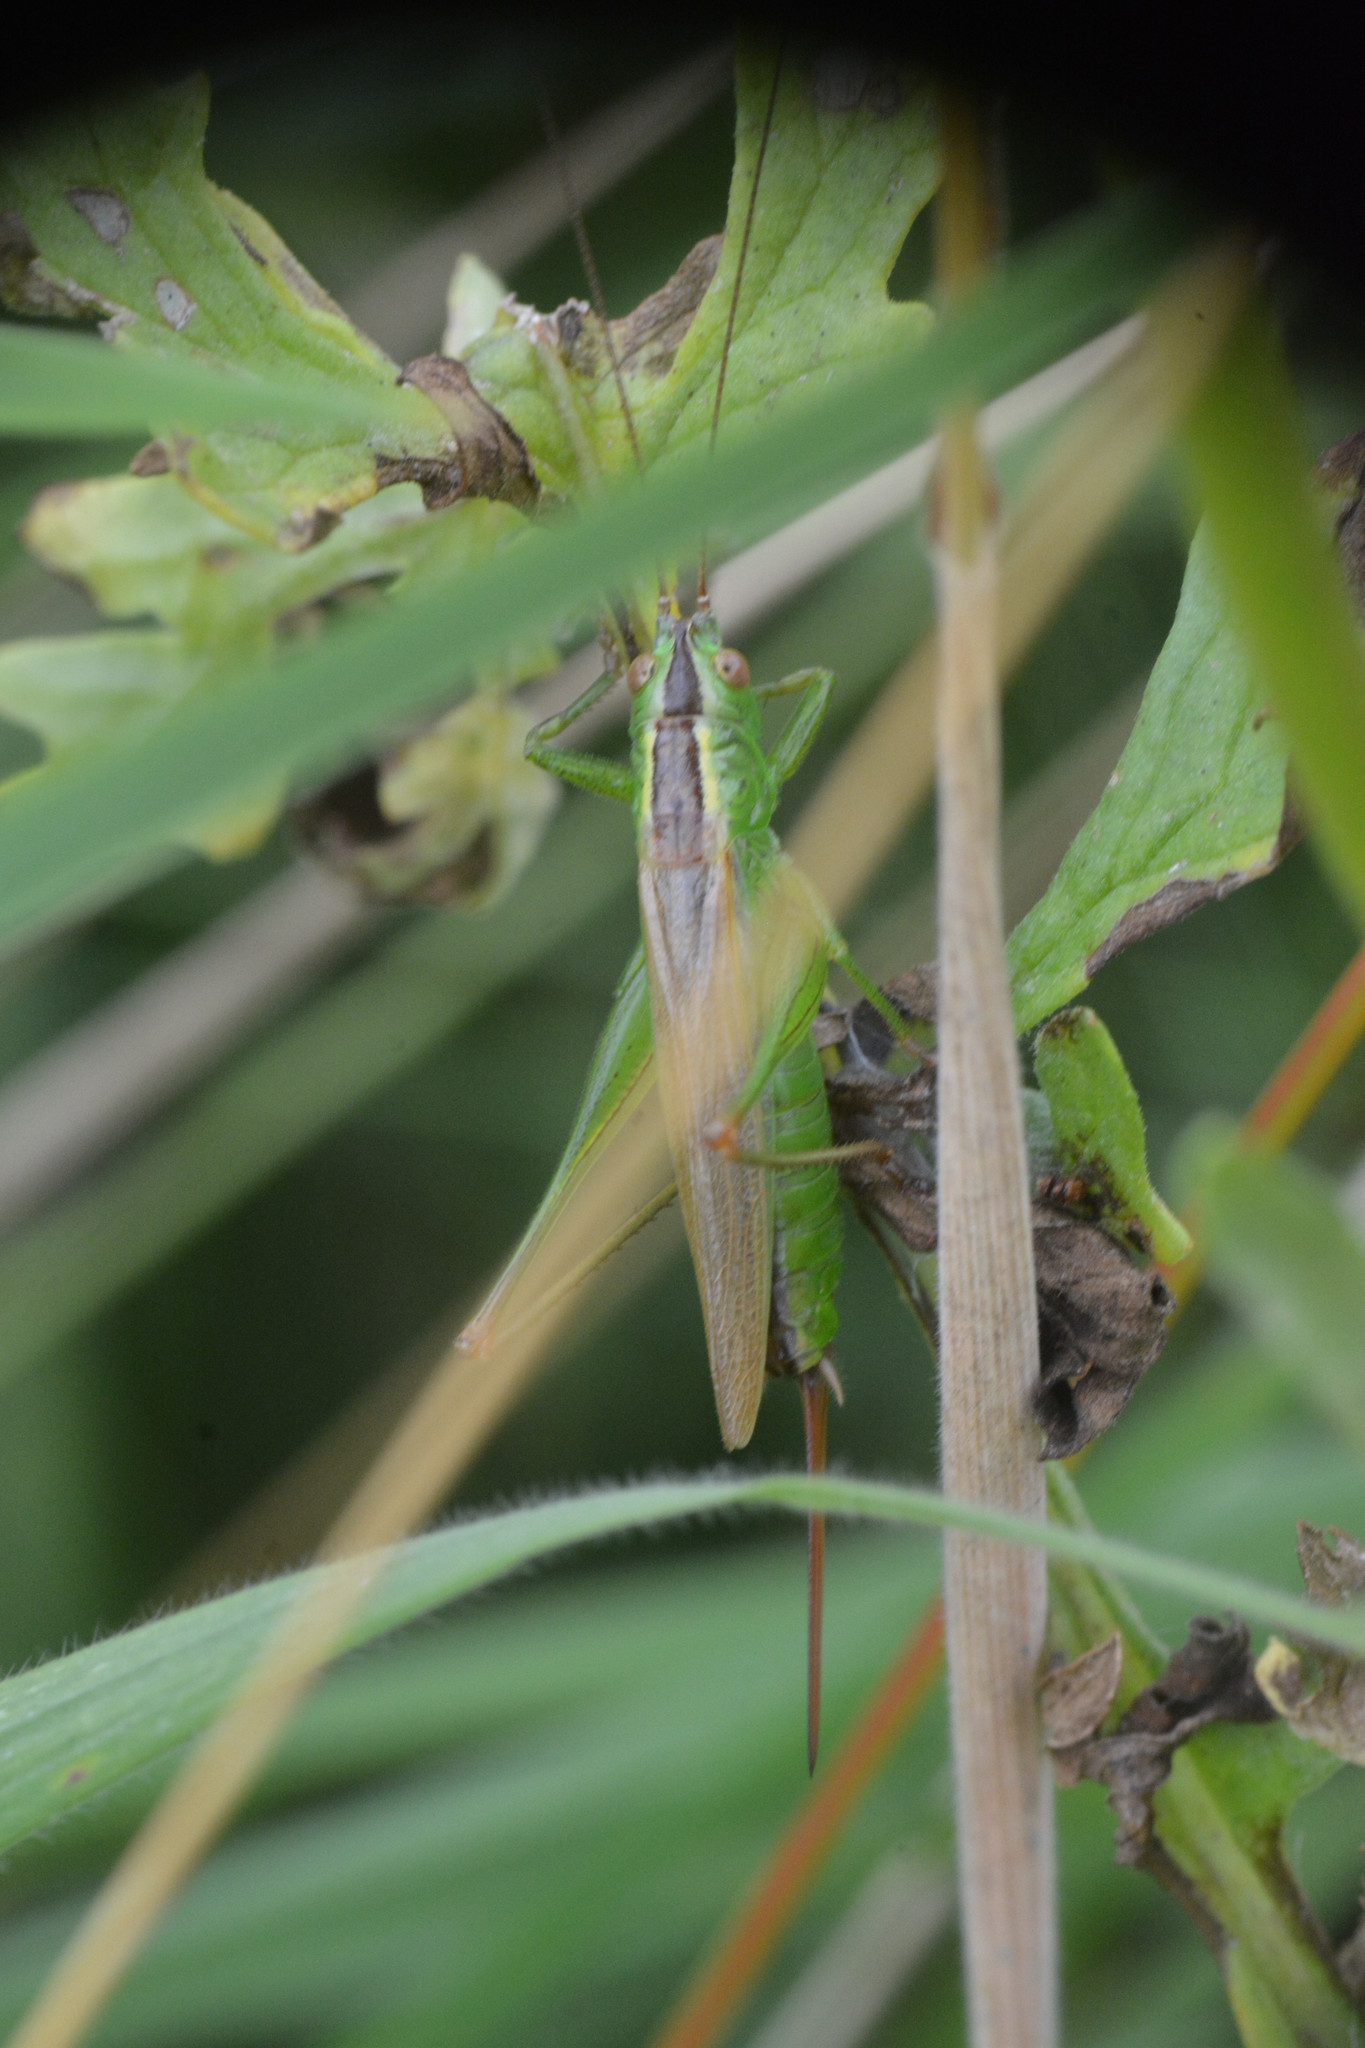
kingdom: Animalia
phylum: Arthropoda
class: Insecta
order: Orthoptera
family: Tettigoniidae
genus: Conocephalus
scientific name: Conocephalus fuscus
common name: Long-winged conehead
